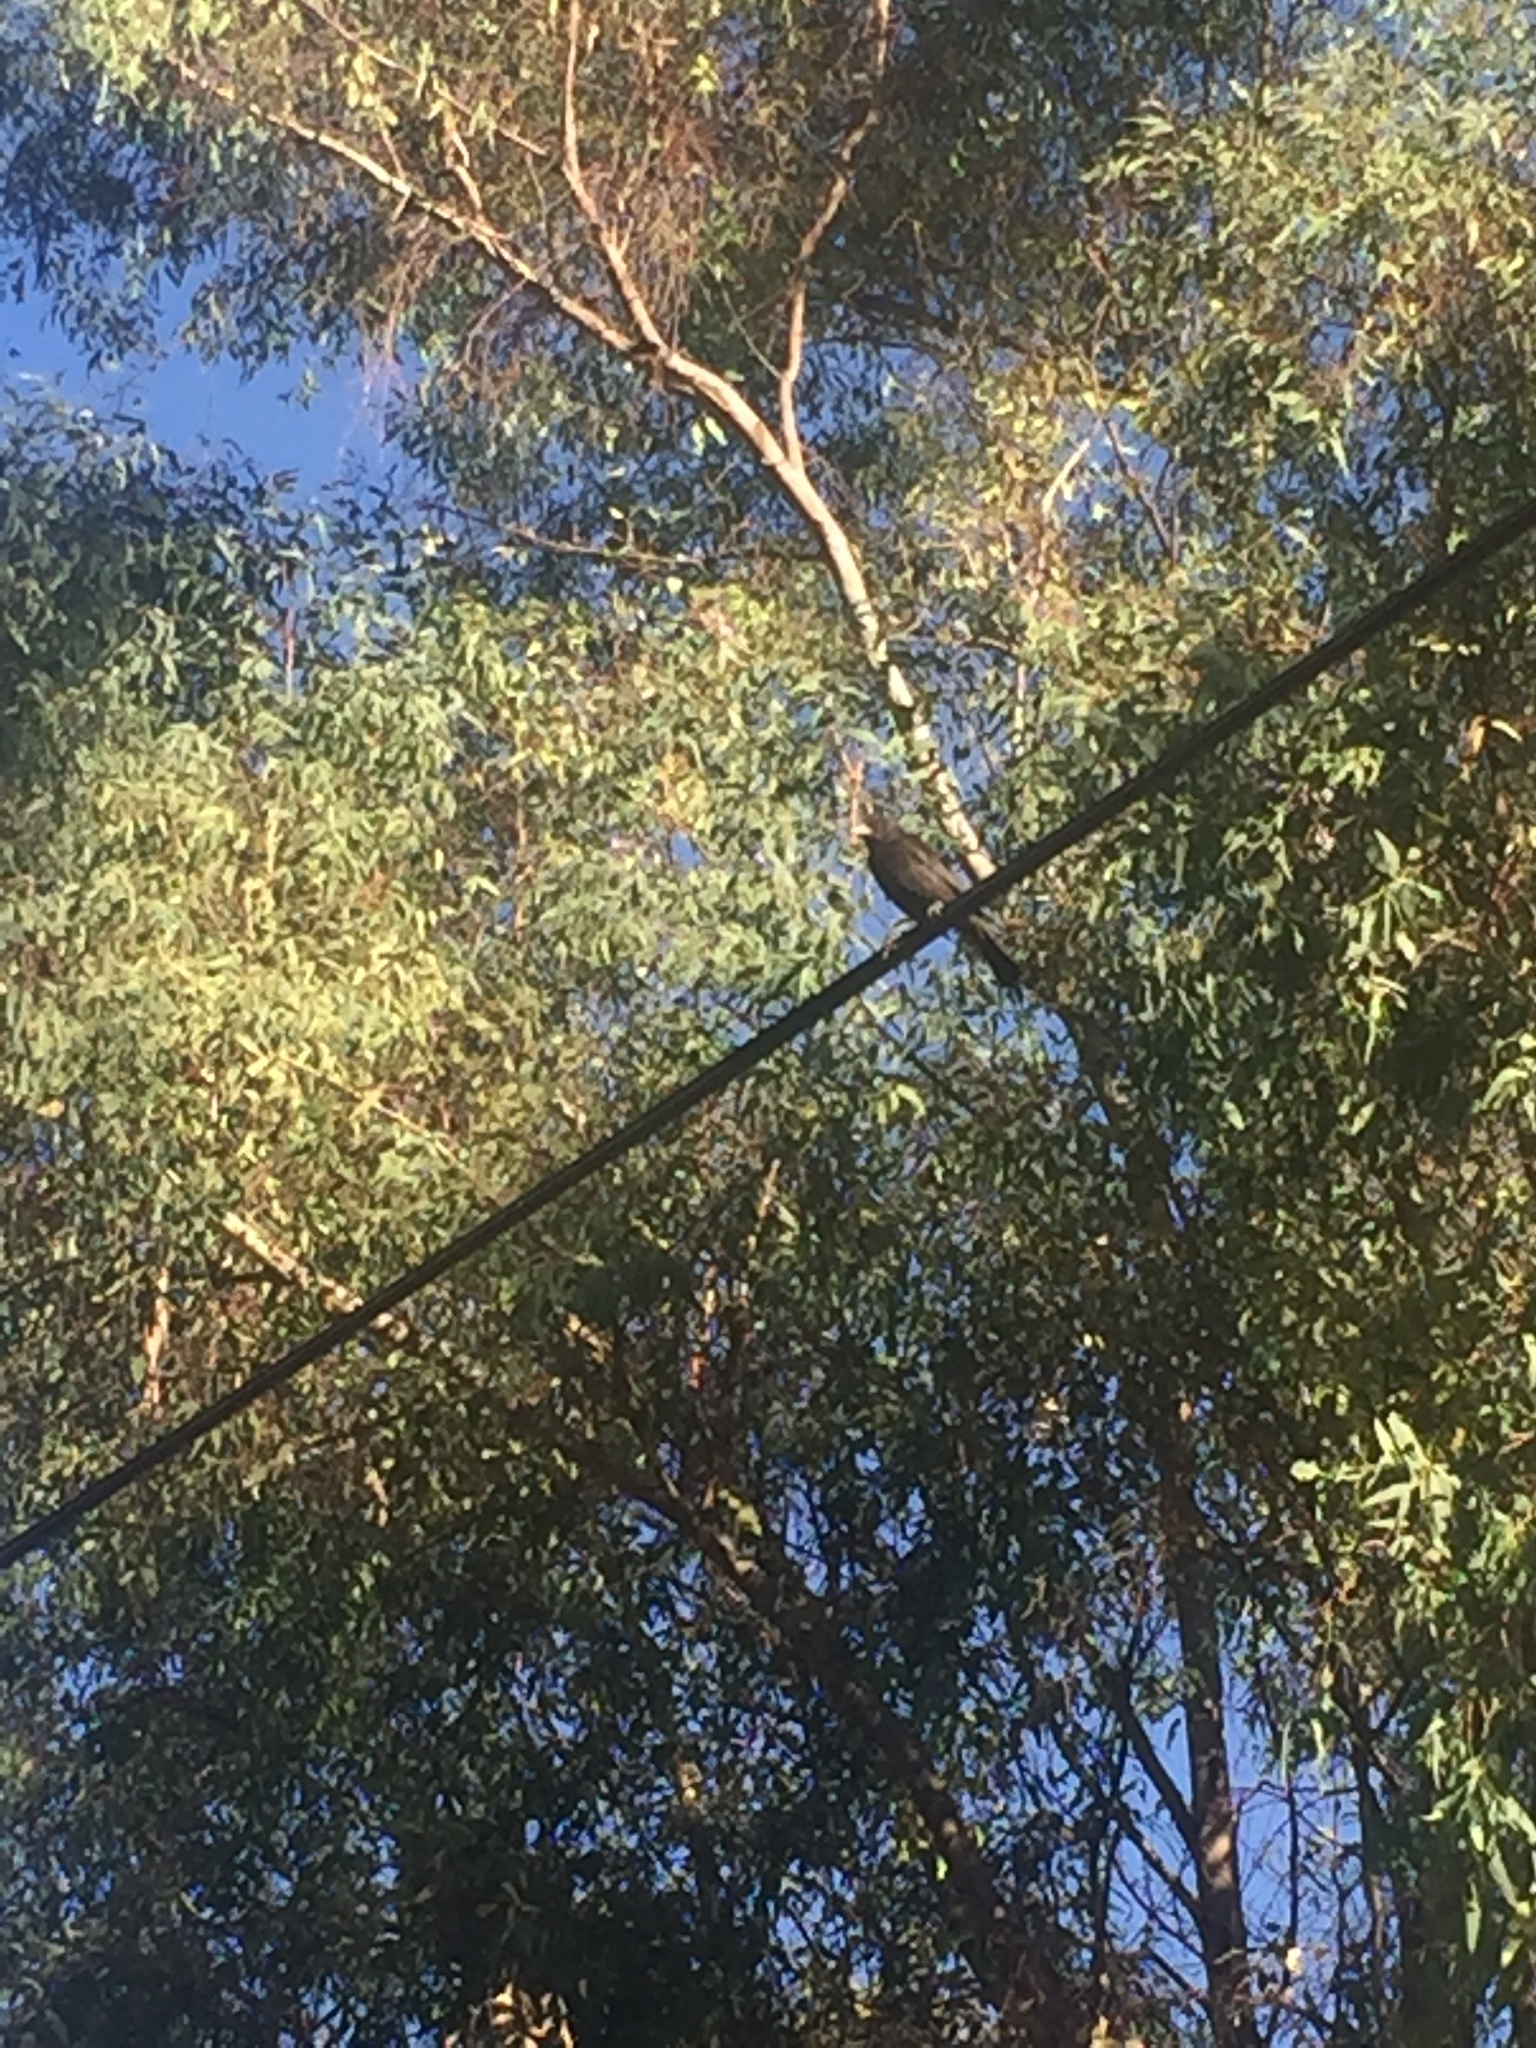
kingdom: Animalia
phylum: Chordata
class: Aves
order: Passeriformes
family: Icteridae
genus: Molothrus
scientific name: Molothrus aeneus
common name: Bronzed cowbird
